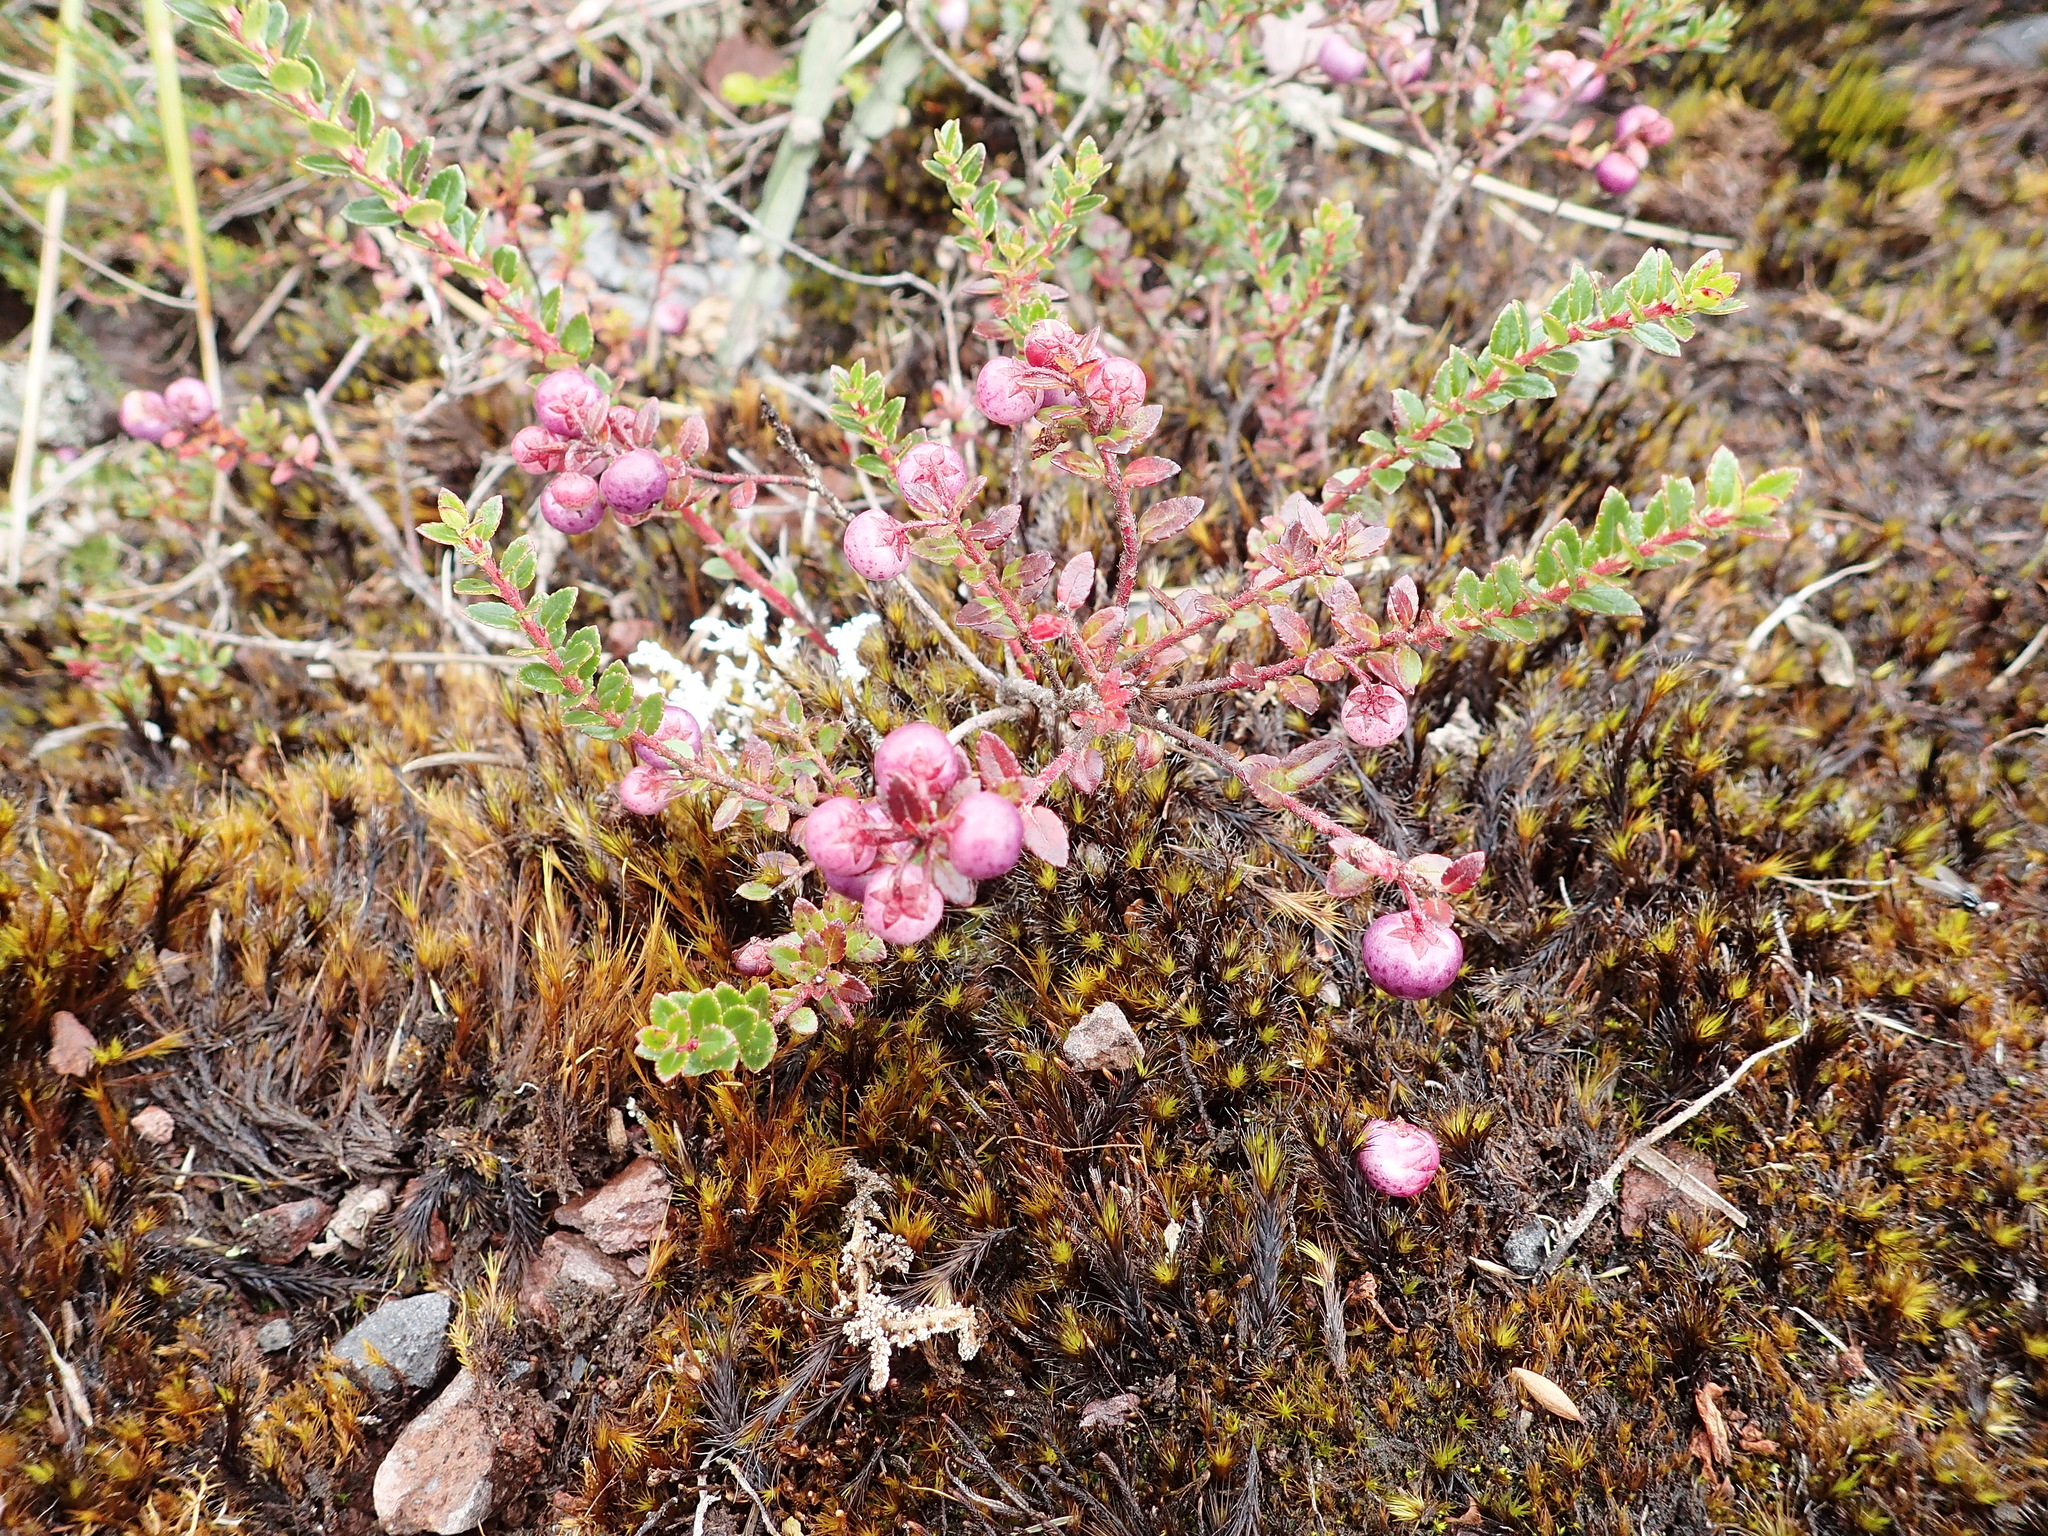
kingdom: Plantae
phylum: Tracheophyta
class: Magnoliopsida
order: Ericales
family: Ericaceae
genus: Gaultheria
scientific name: Gaultheria myrsinoides
